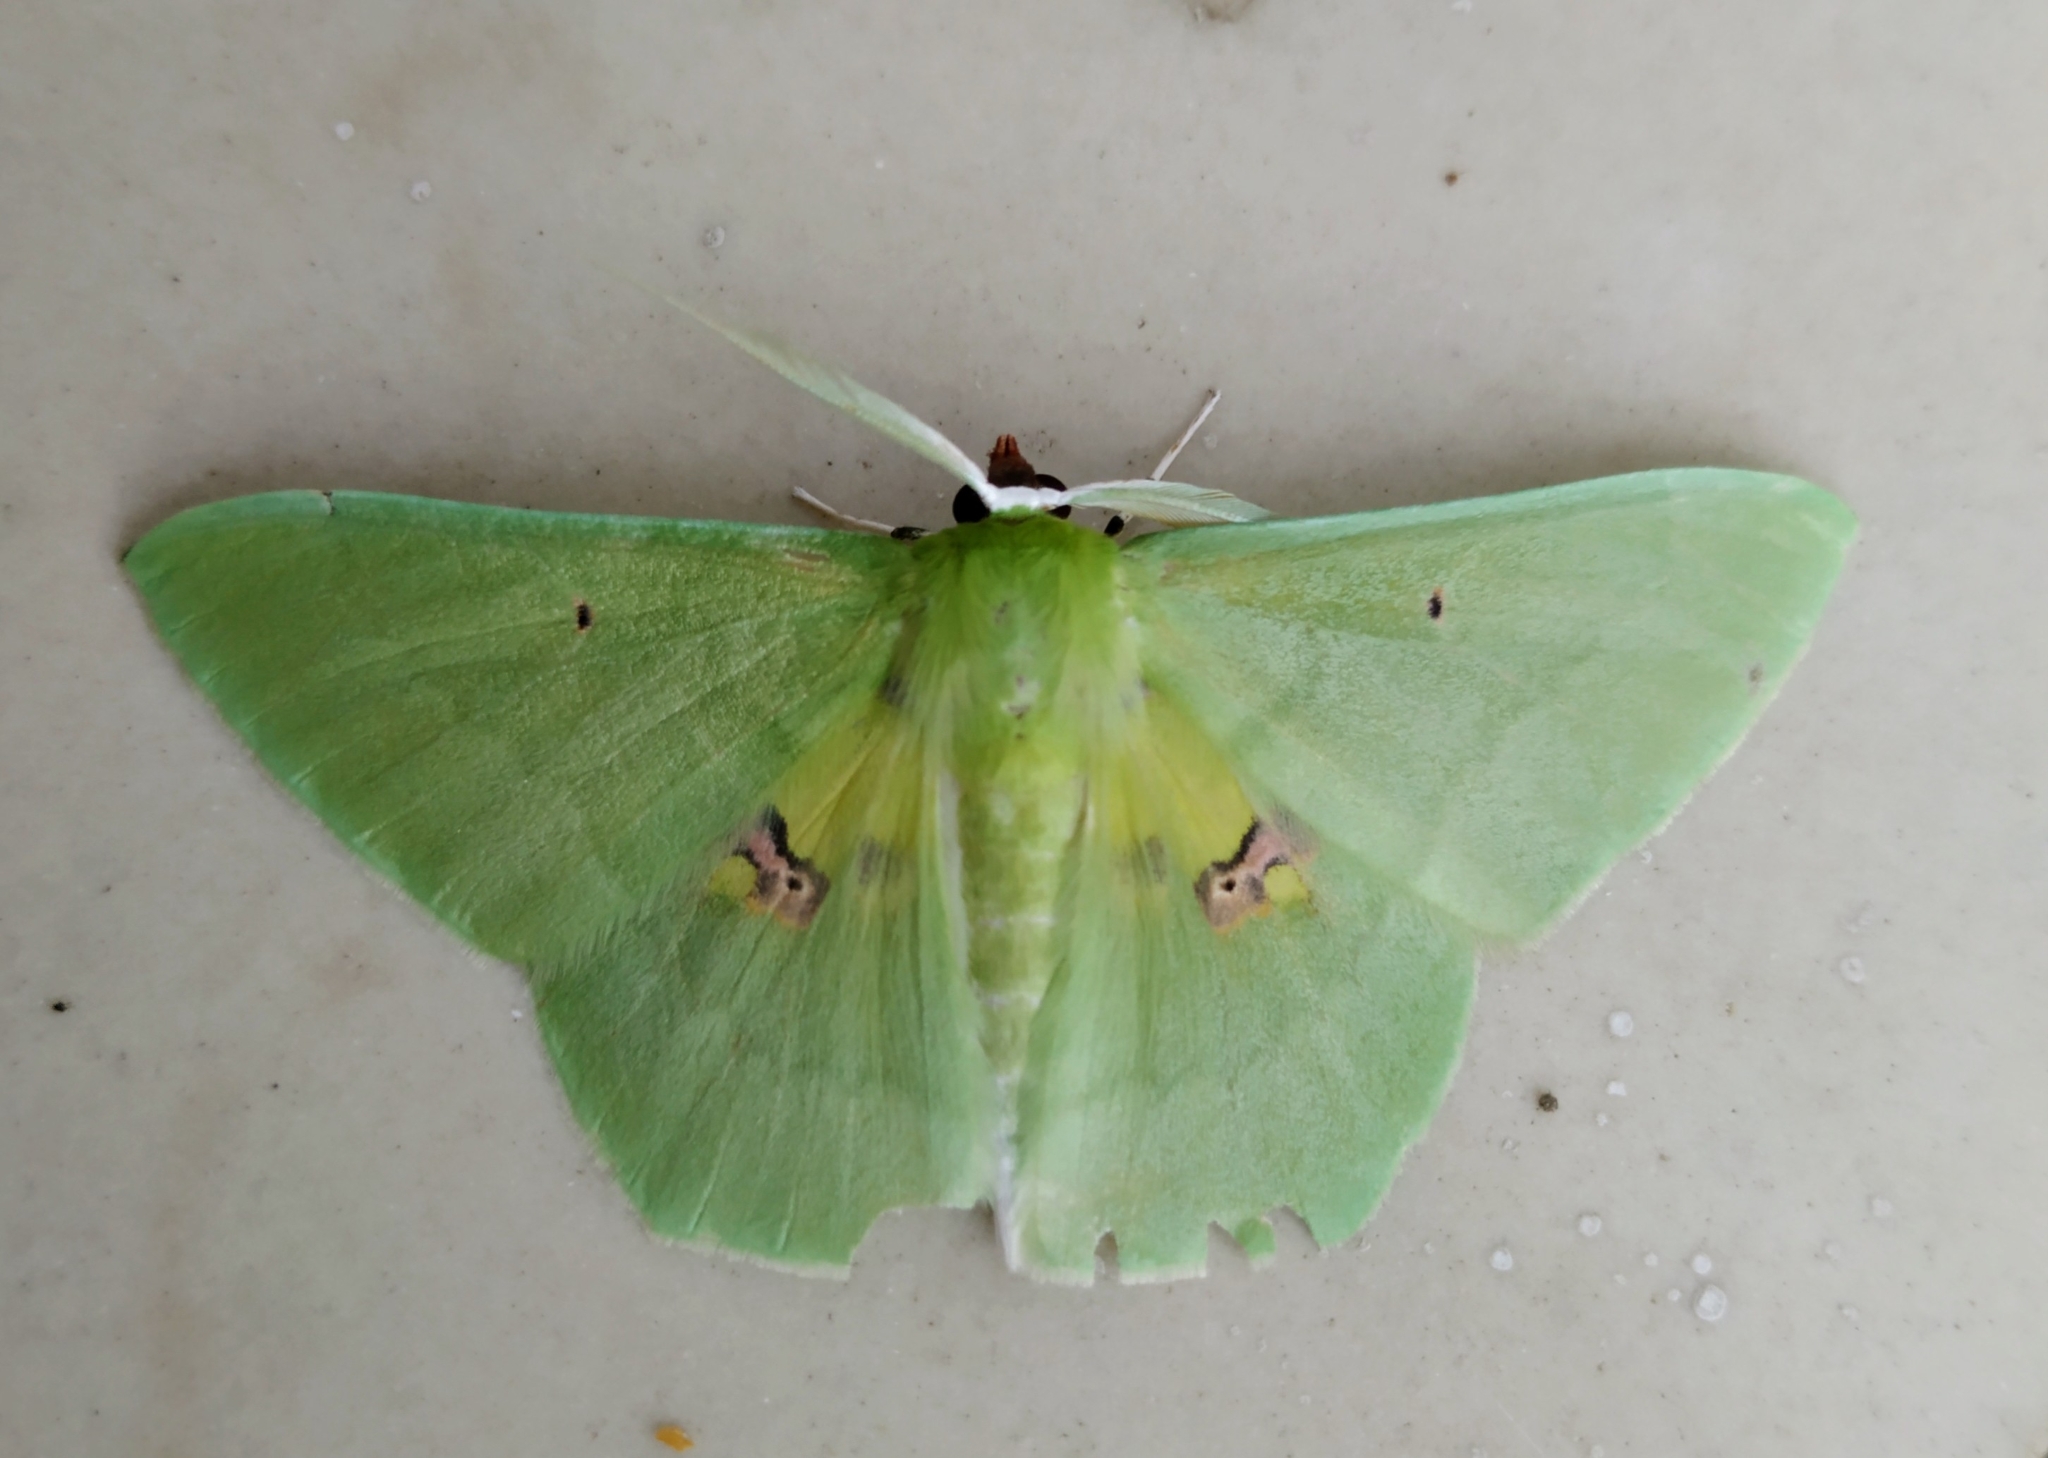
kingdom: Animalia
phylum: Arthropoda
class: Insecta
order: Lepidoptera
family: Geometridae
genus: Aporandria
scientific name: Aporandria specularia
